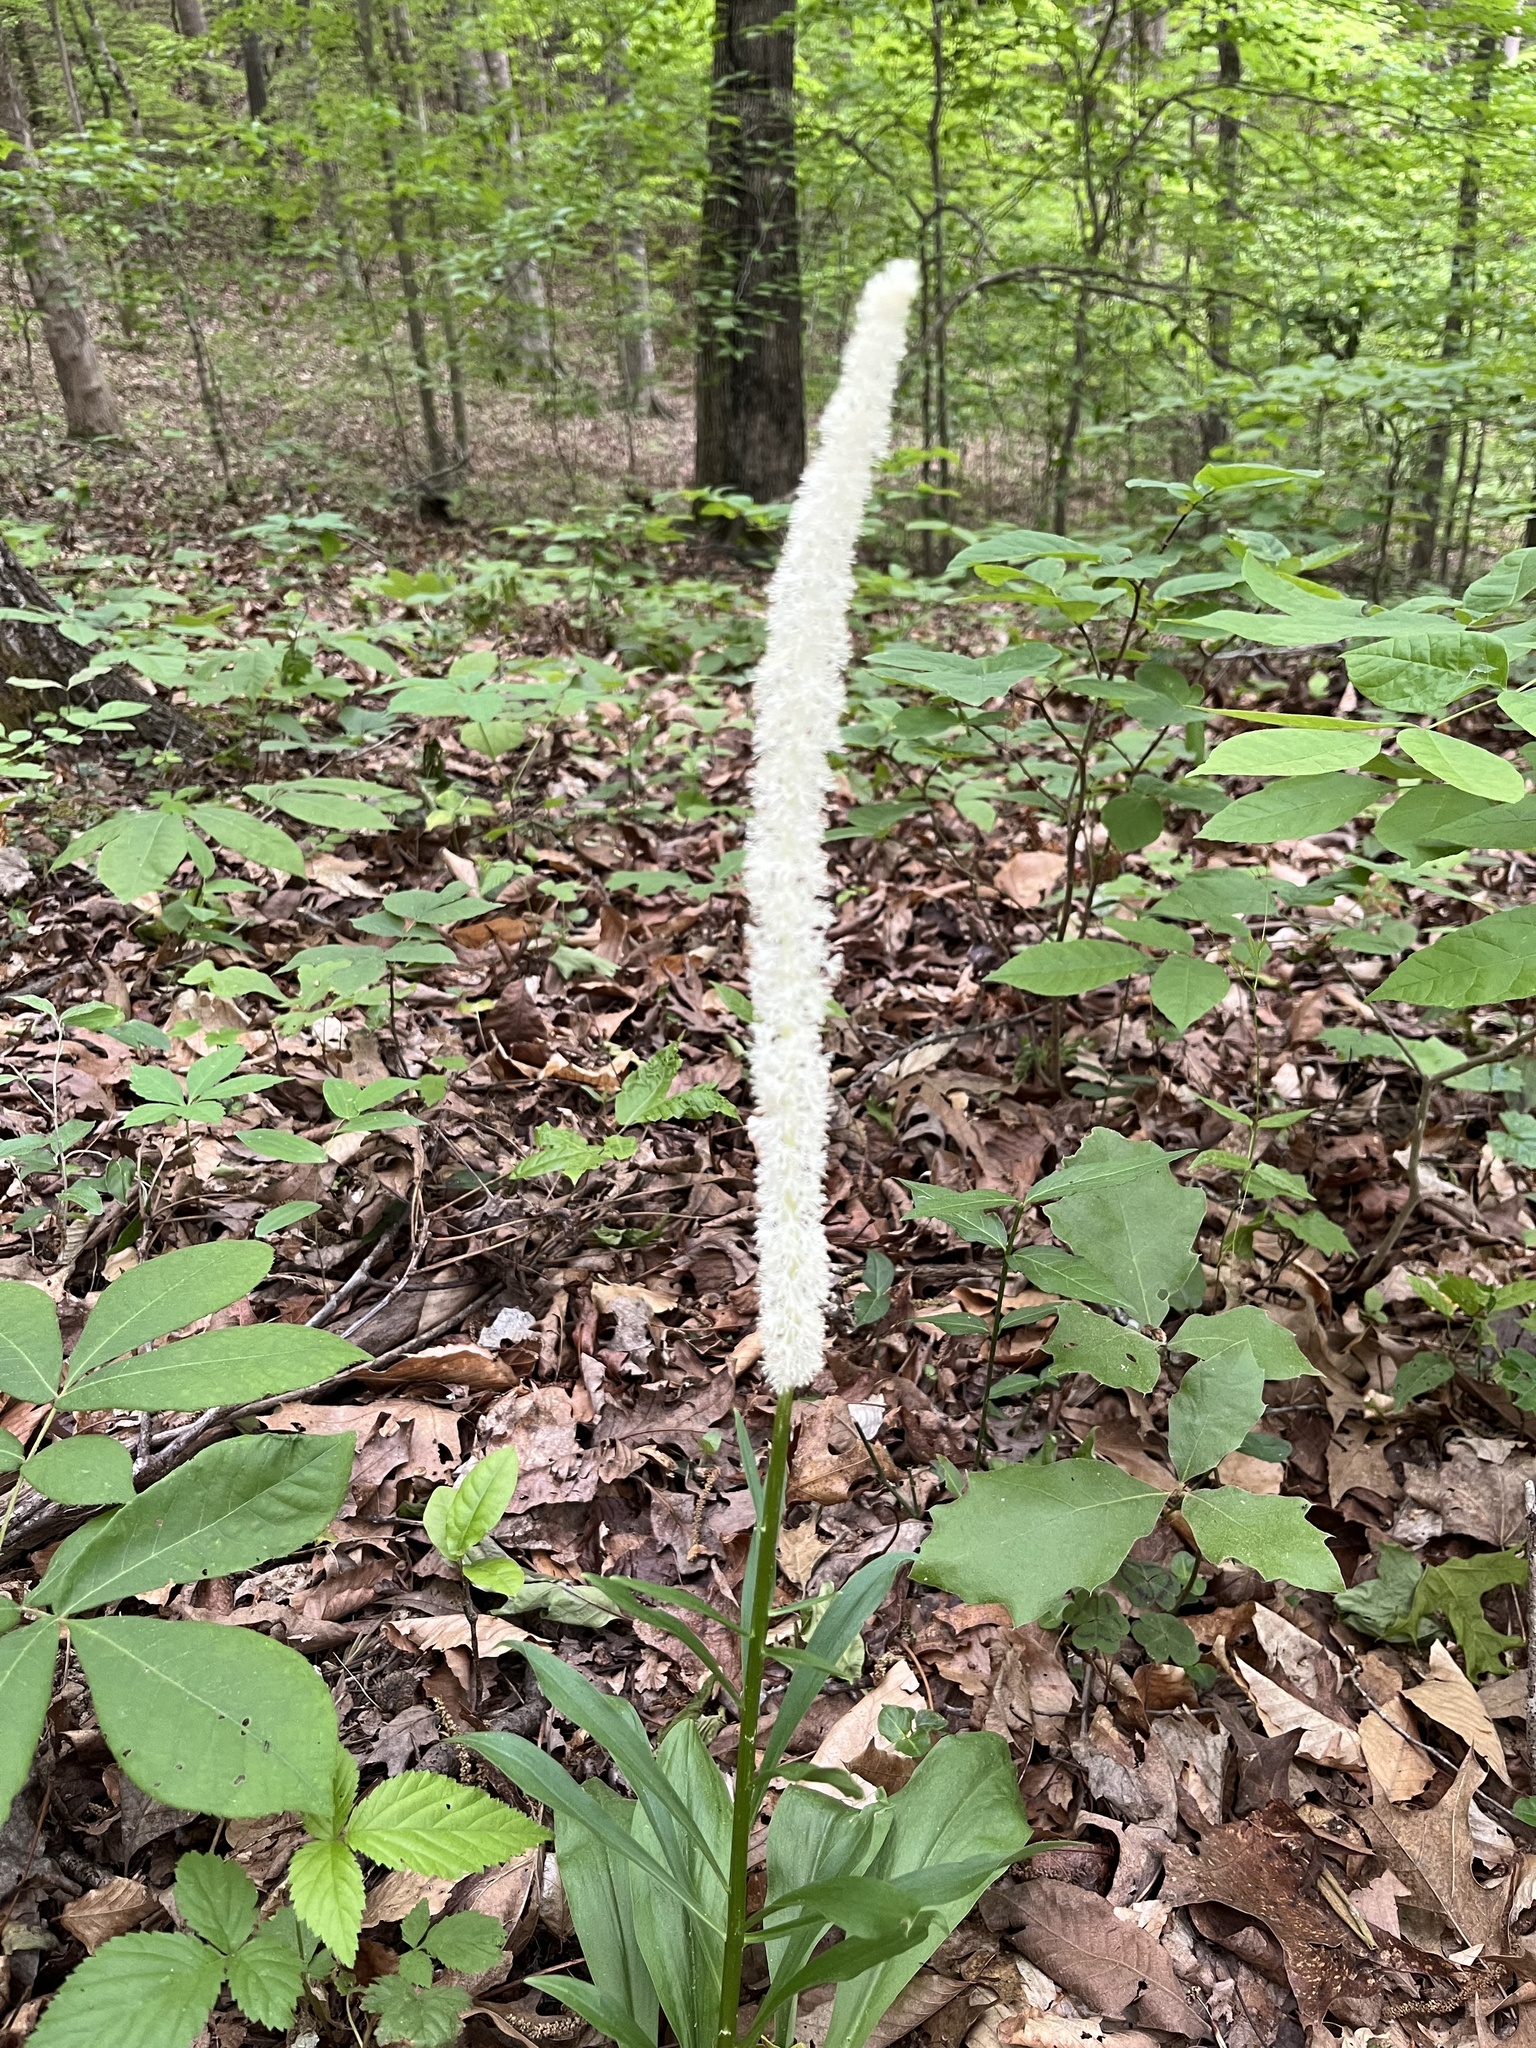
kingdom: Plantae
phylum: Tracheophyta
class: Liliopsida
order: Liliales
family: Melanthiaceae
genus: Chamaelirium
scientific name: Chamaelirium luteum
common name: Fairy-wand
